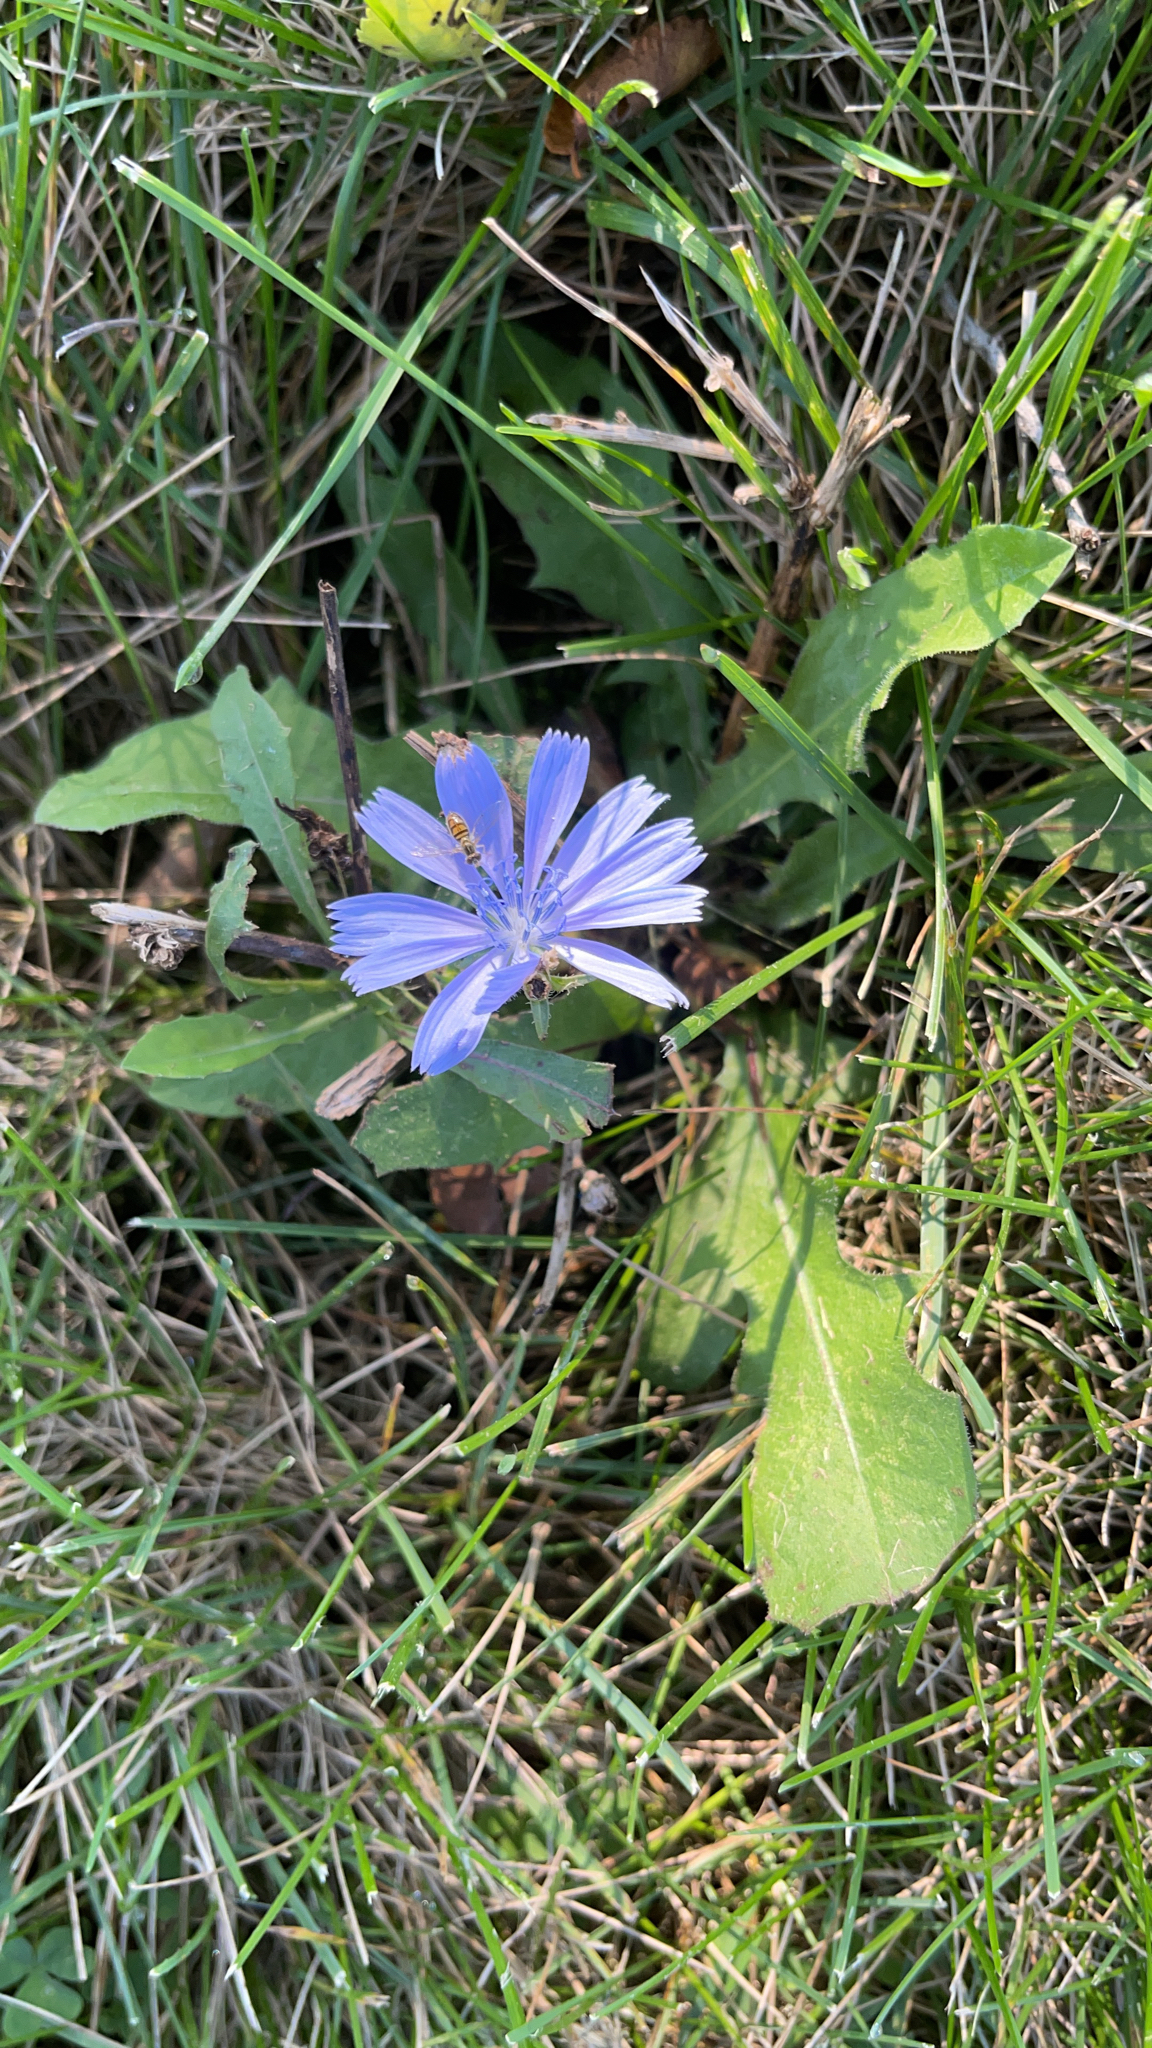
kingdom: Plantae
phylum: Tracheophyta
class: Magnoliopsida
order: Asterales
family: Asteraceae
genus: Cichorium
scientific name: Cichorium intybus
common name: Chicory
